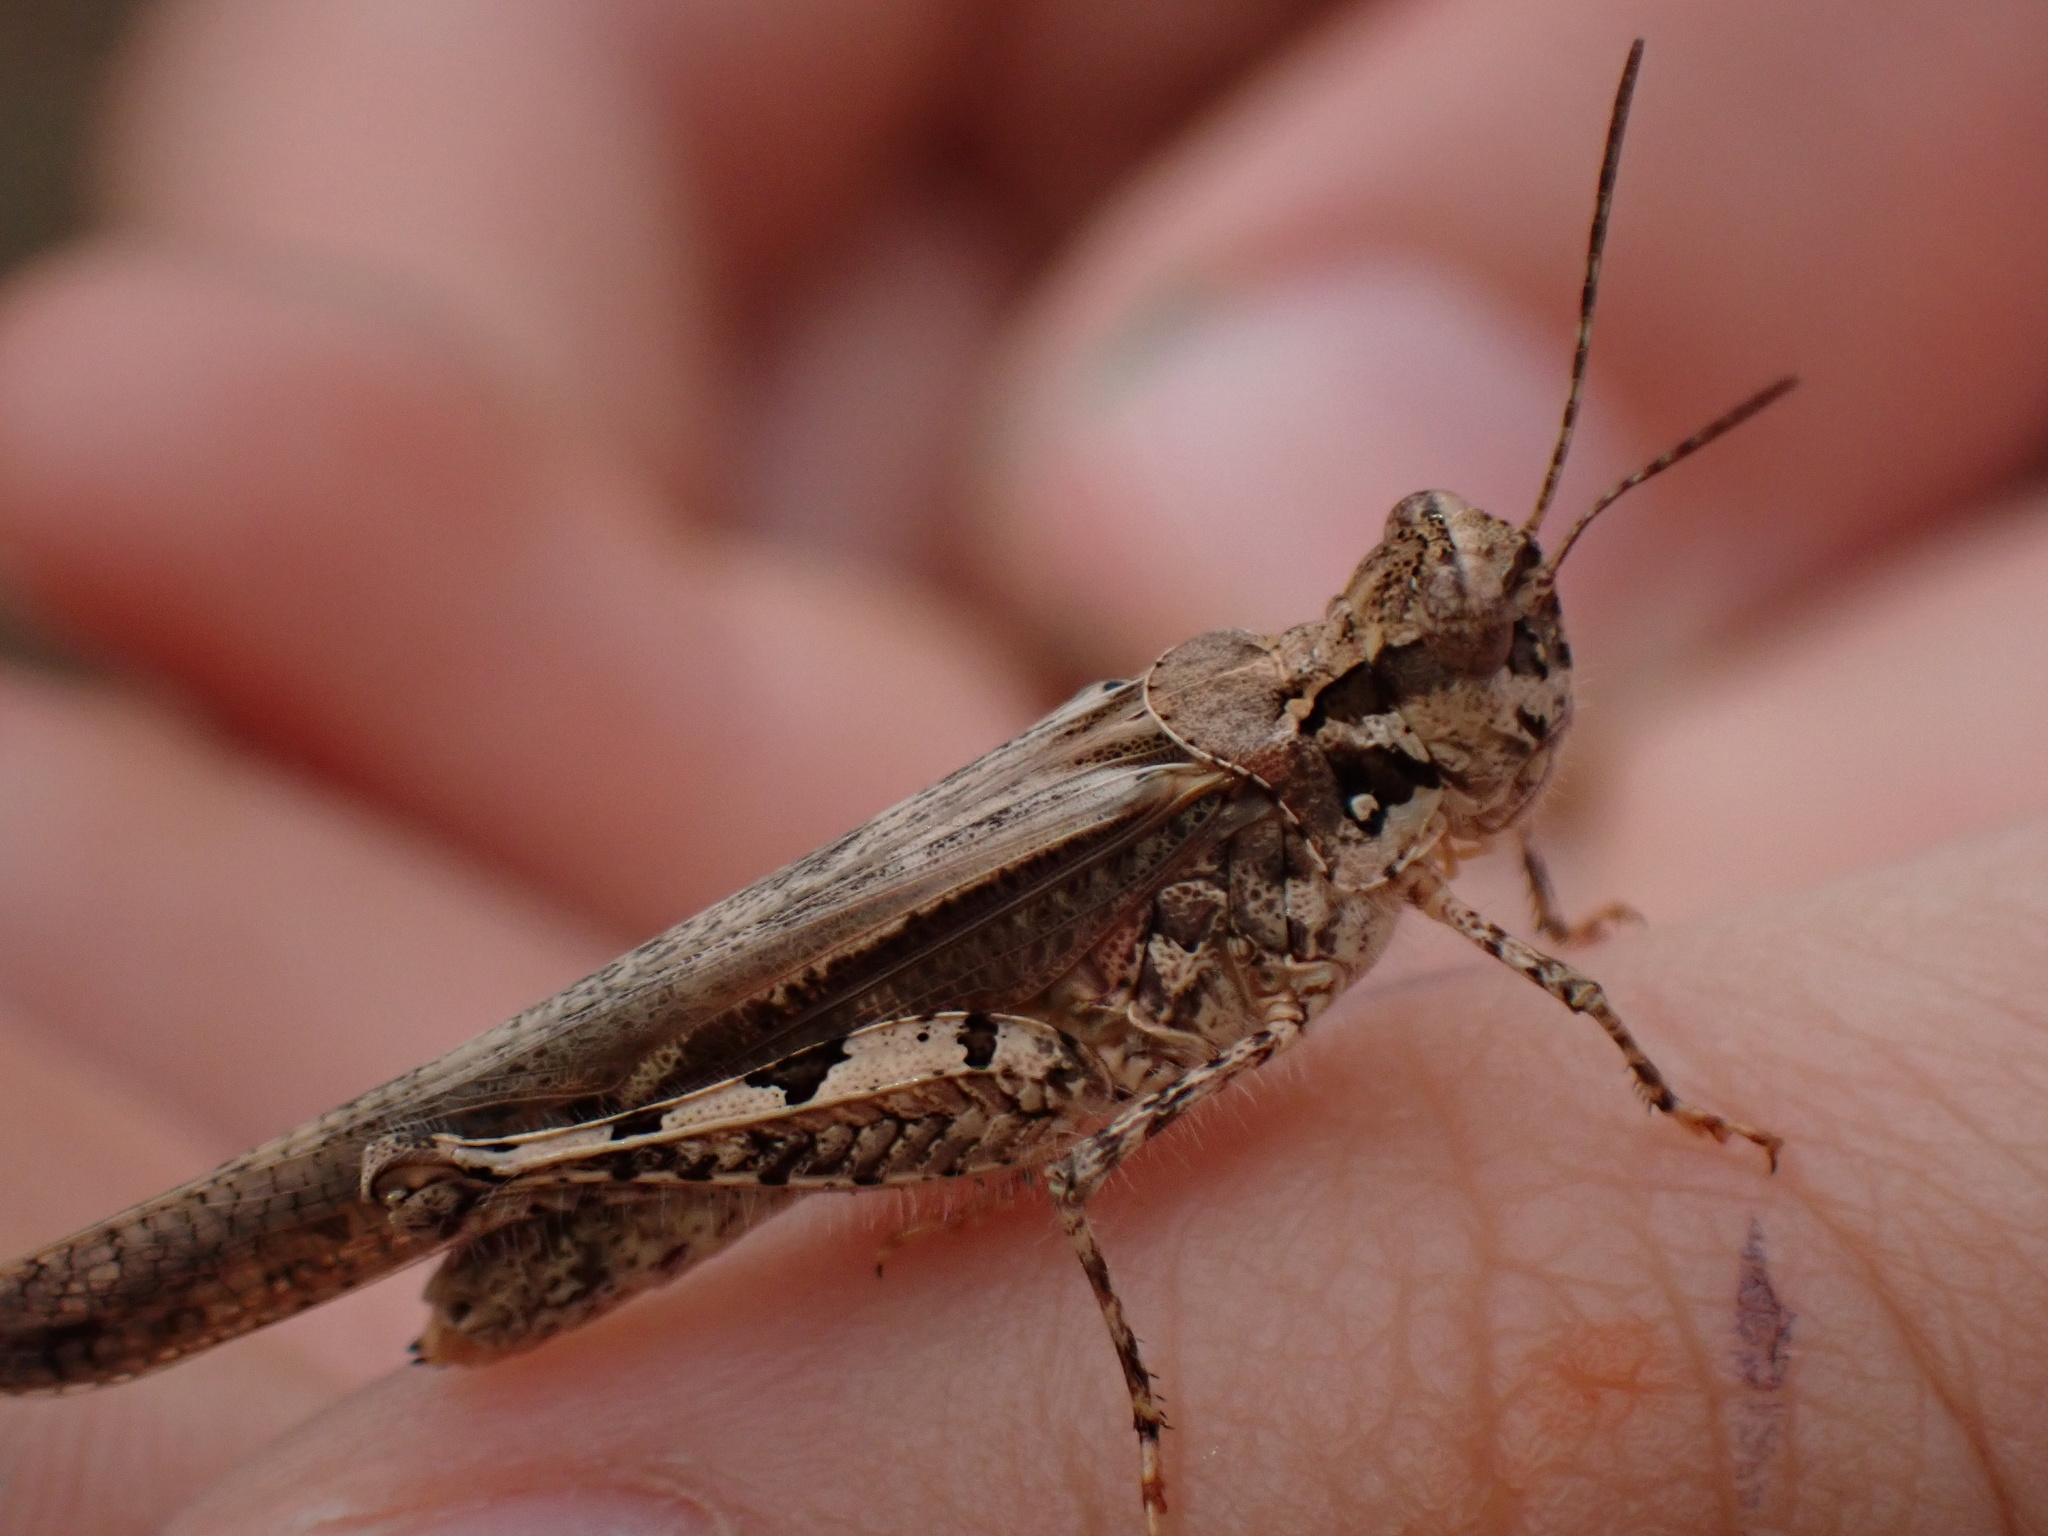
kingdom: Animalia
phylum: Arthropoda
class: Insecta
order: Orthoptera
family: Acrididae
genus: Acrotylus
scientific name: Acrotylus patruelis
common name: Slender burrowing grasshopper
